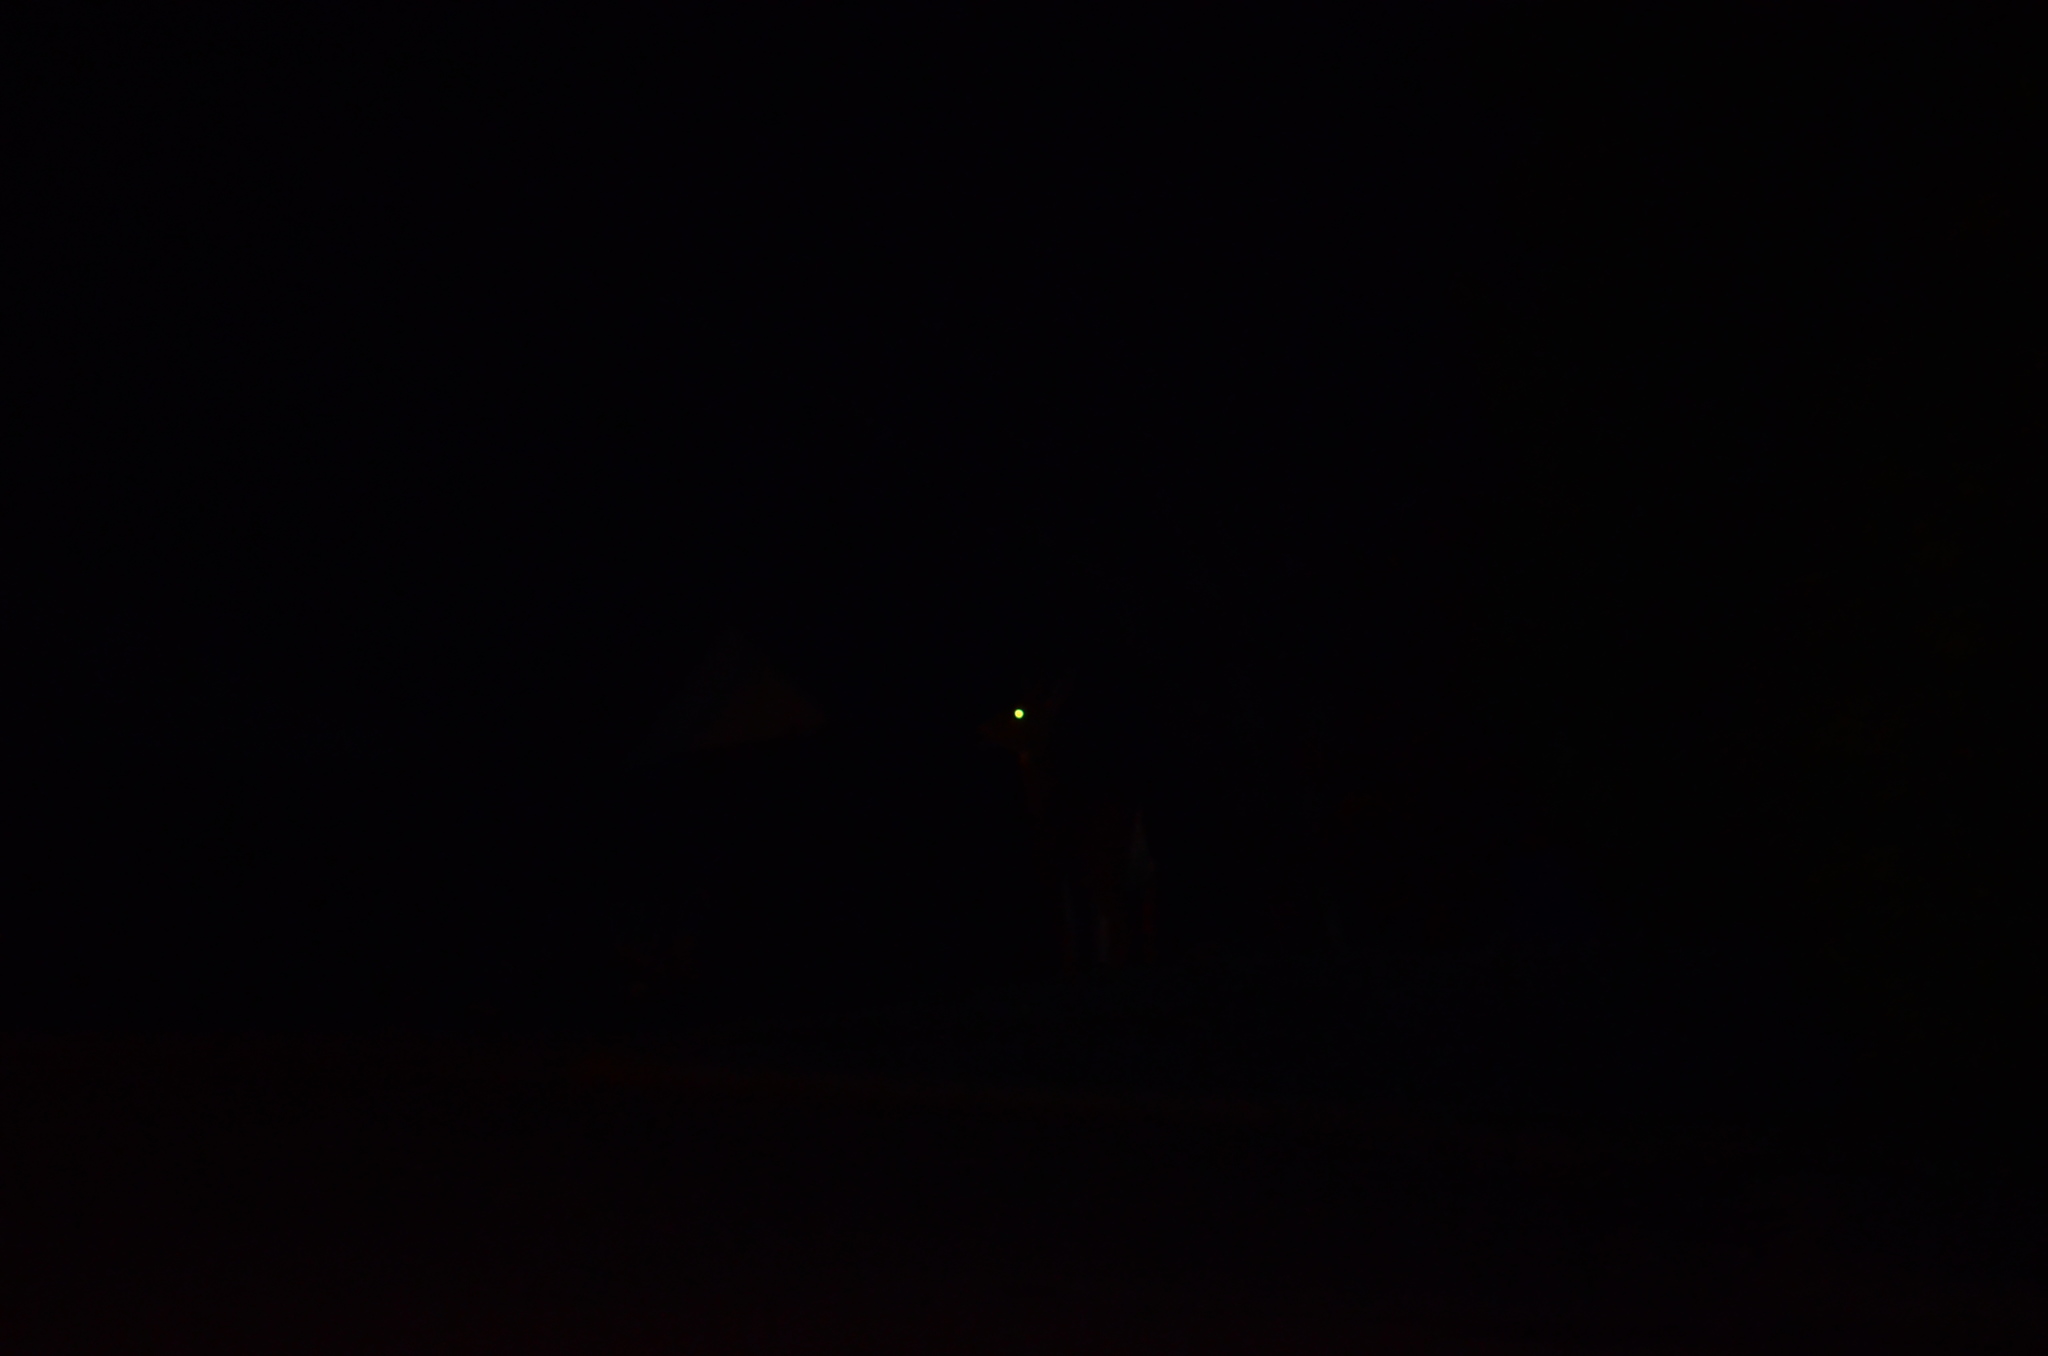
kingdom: Animalia
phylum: Chordata
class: Mammalia
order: Artiodactyla
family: Cervidae
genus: Odocoileus
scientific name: Odocoileus hemionus
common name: Mule deer
